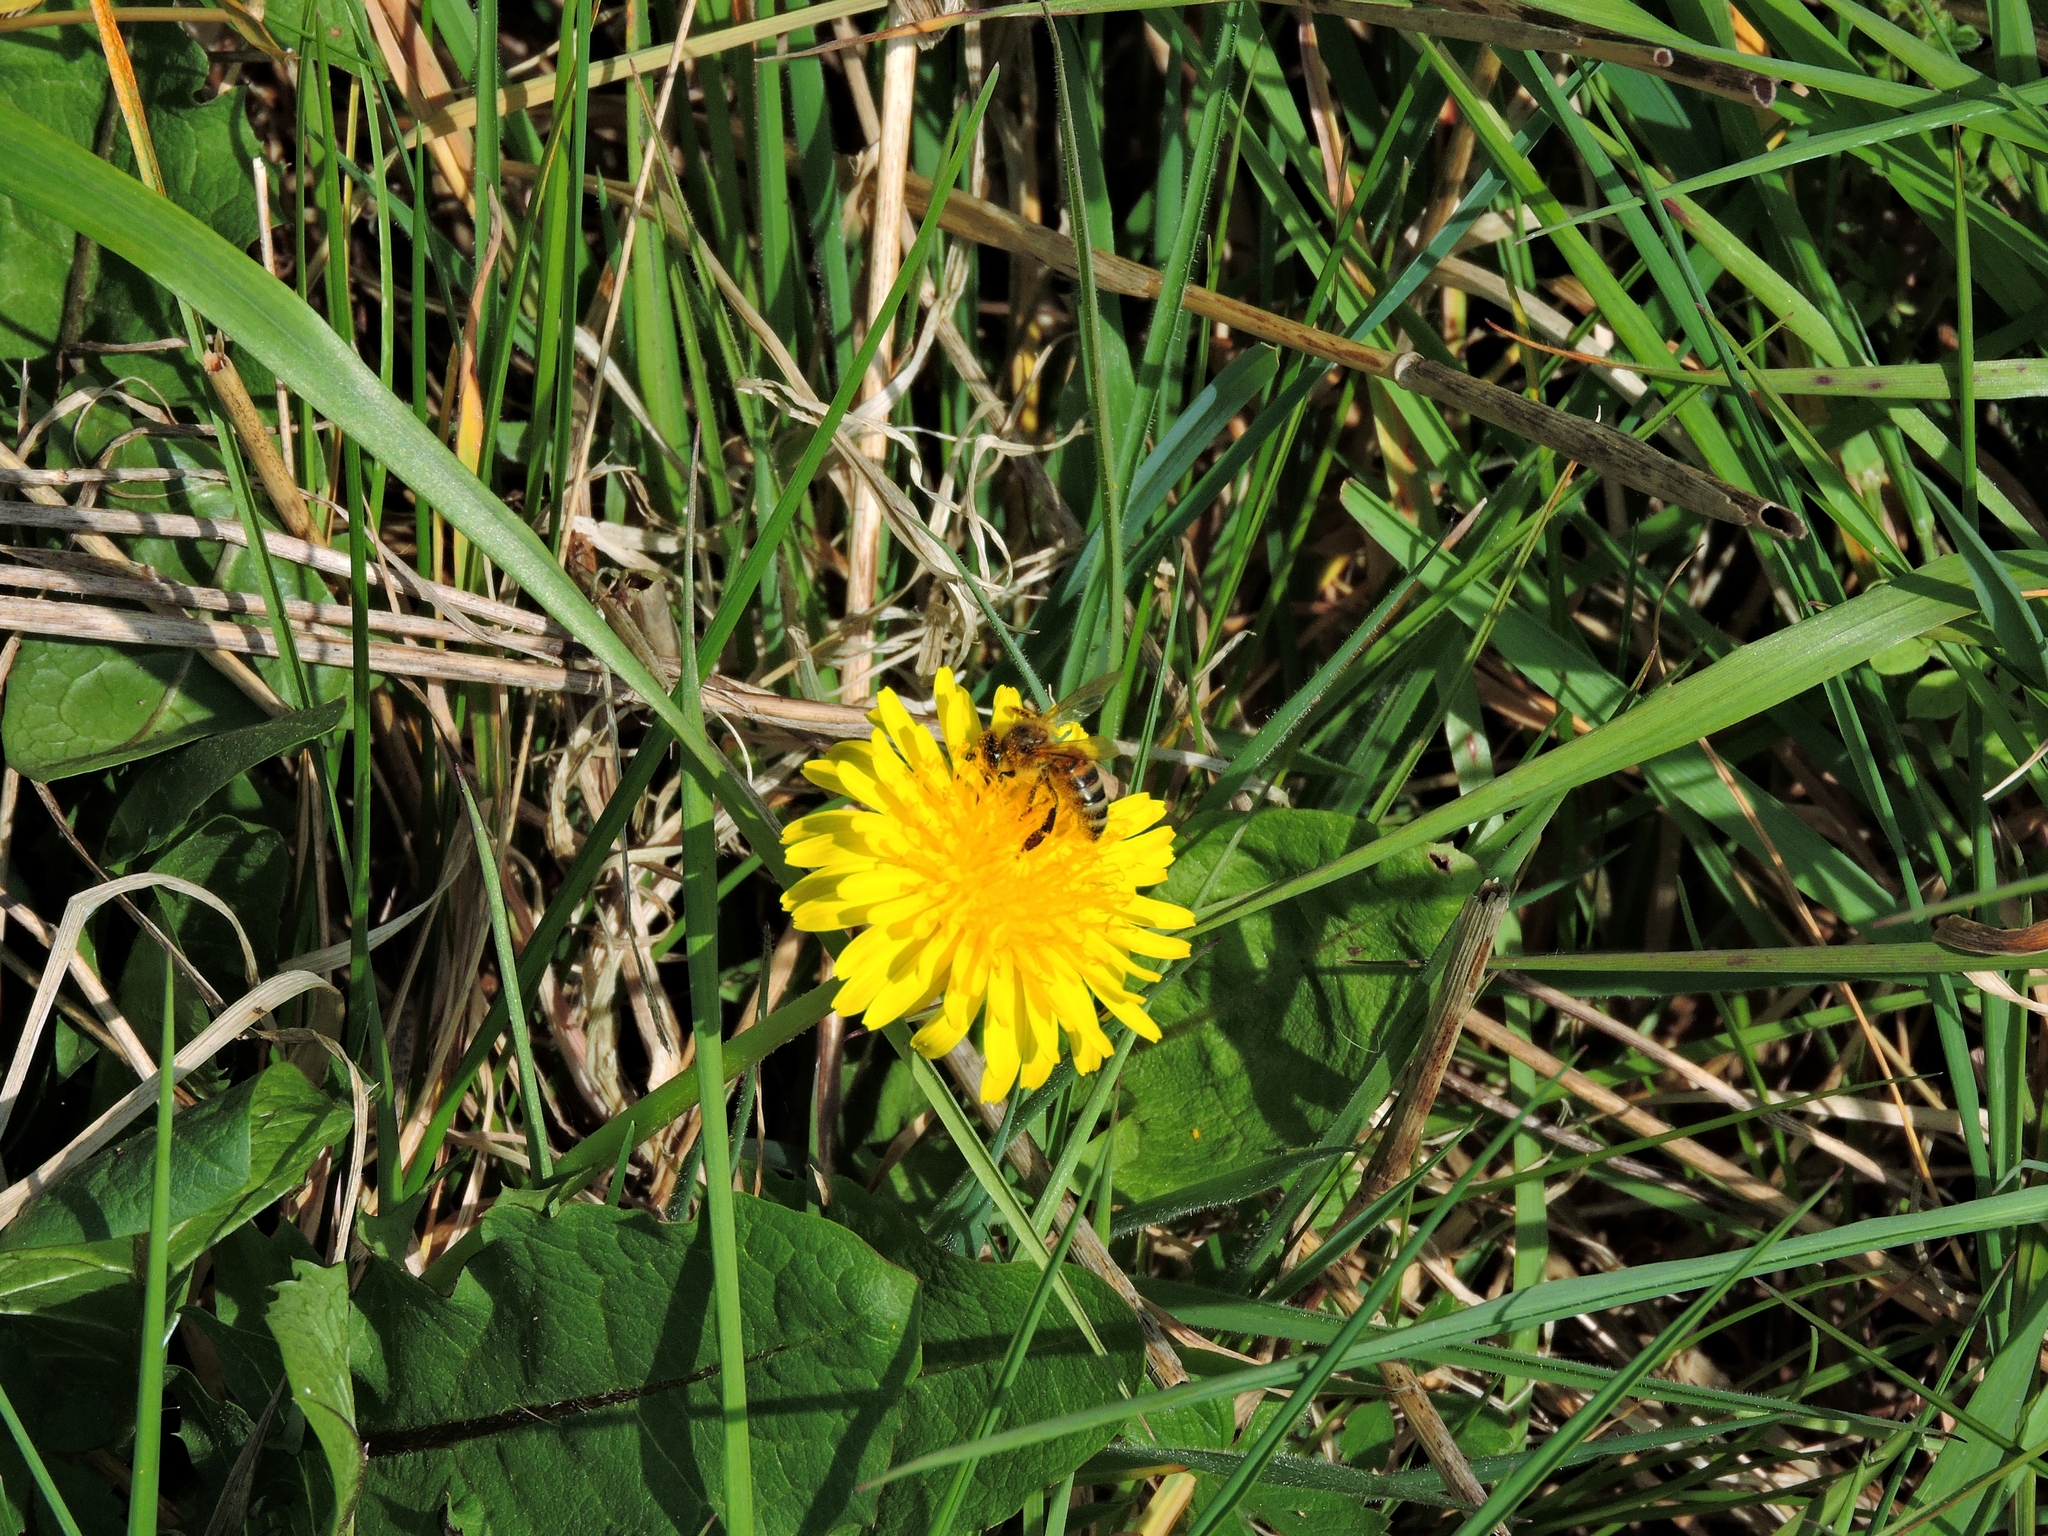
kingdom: Animalia
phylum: Arthropoda
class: Insecta
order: Hymenoptera
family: Apidae
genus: Apis
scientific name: Apis mellifera
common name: Honey bee
